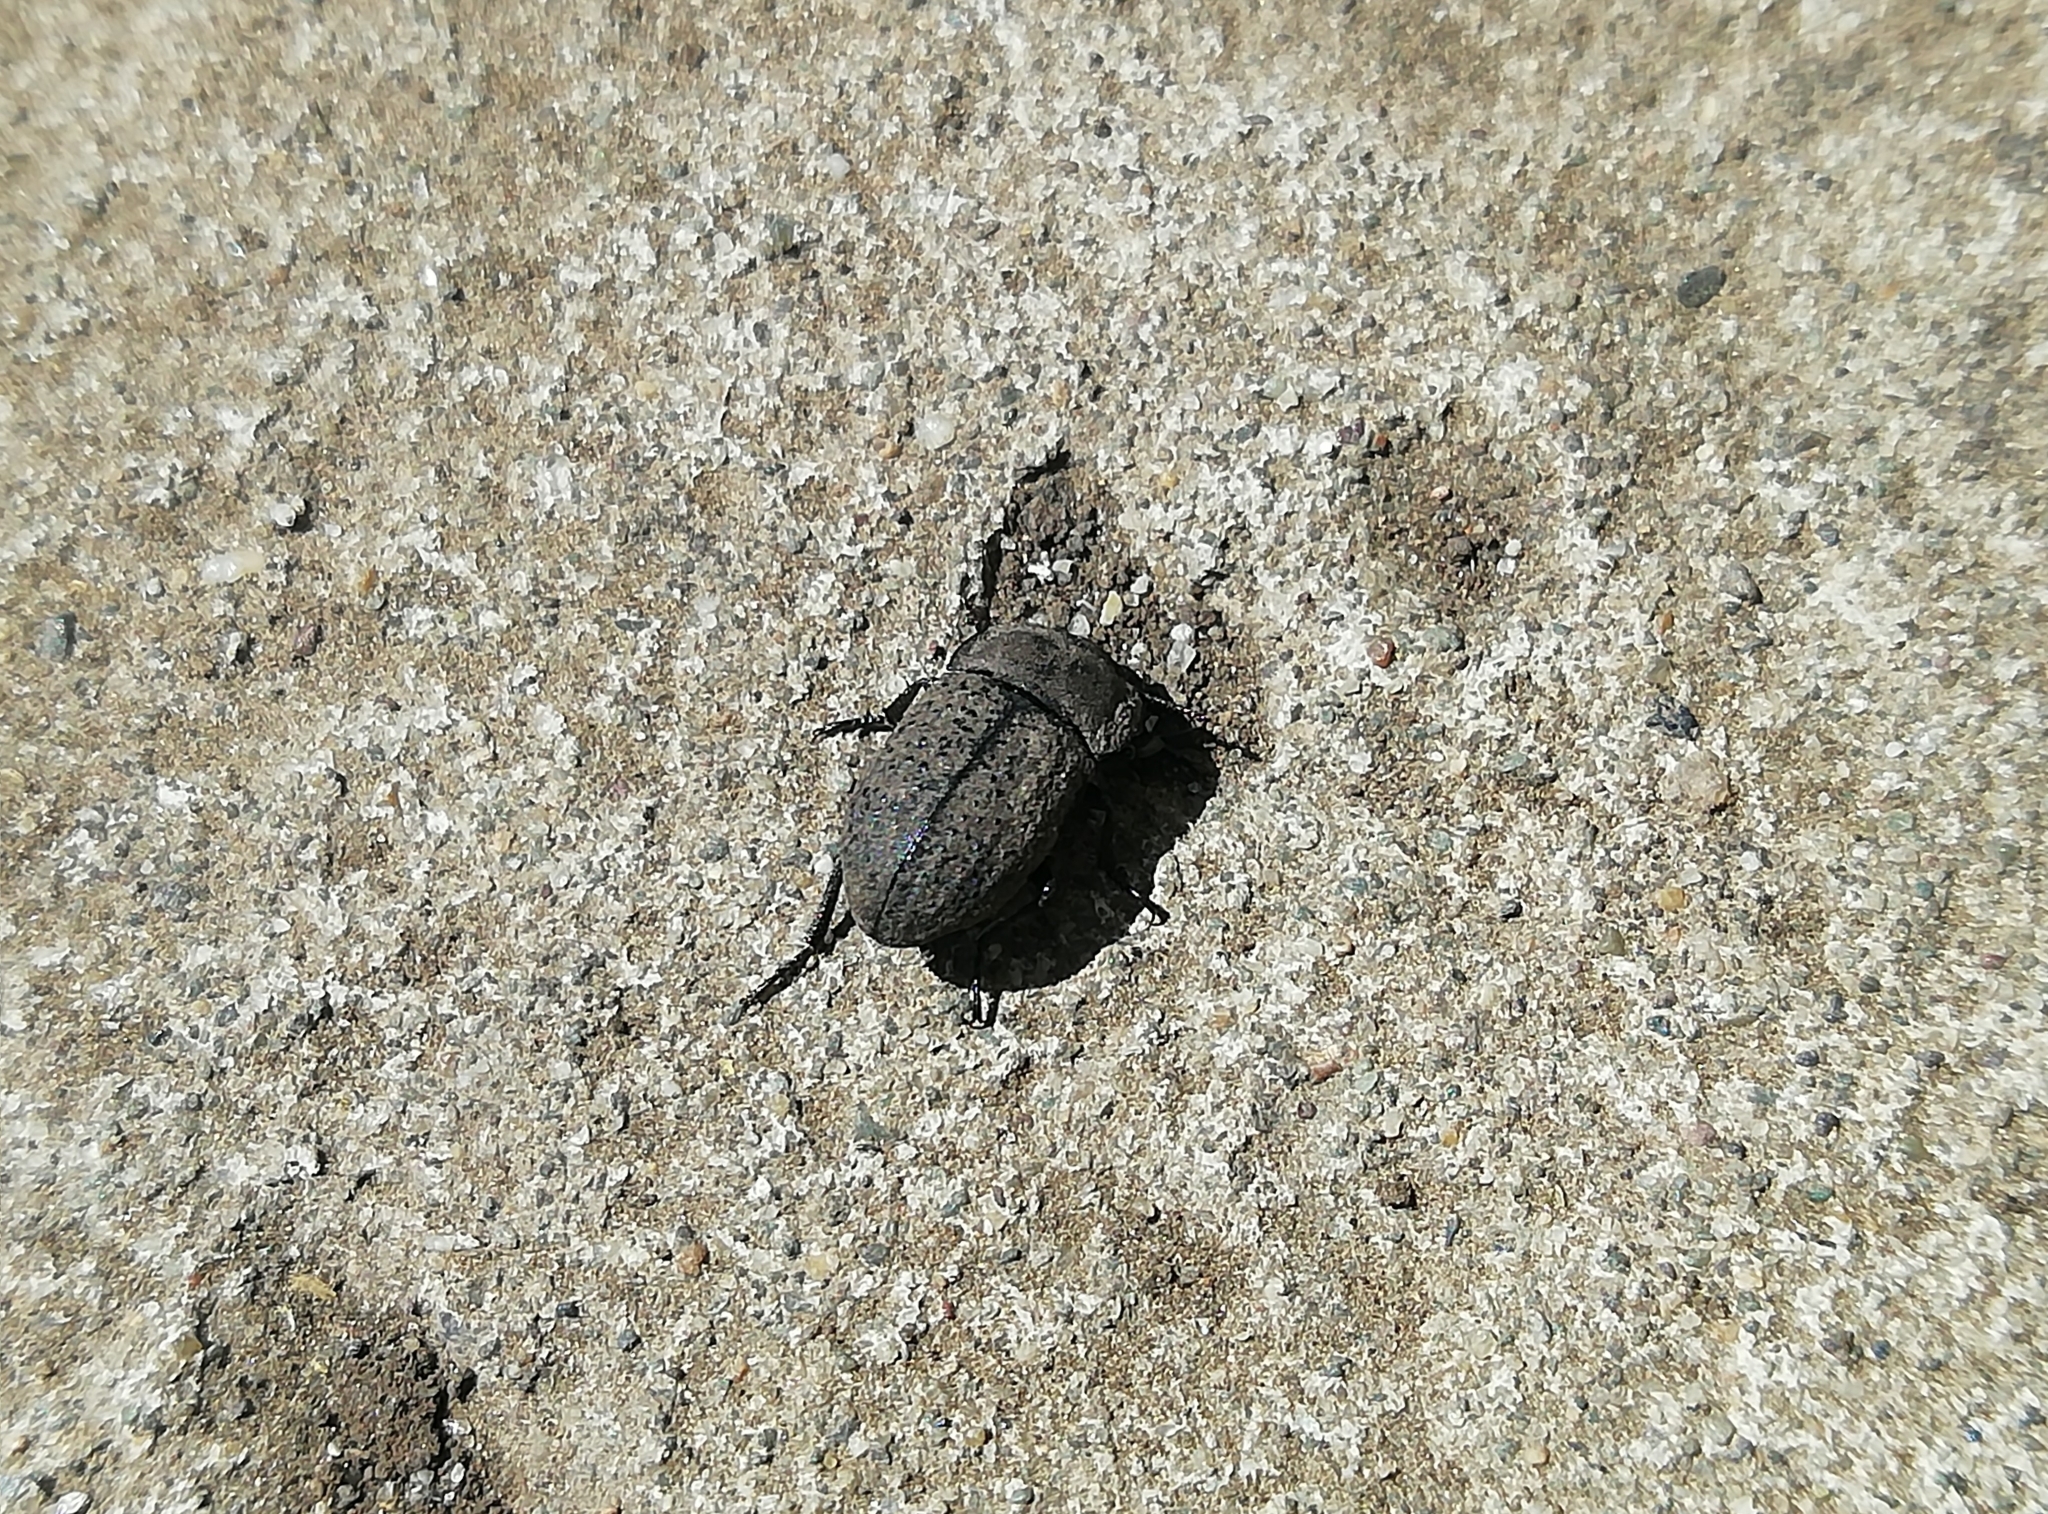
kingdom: Animalia
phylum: Arthropoda
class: Insecta
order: Coleoptera
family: Tenebrionidae
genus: Opatrum
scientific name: Opatrum sabulosum
